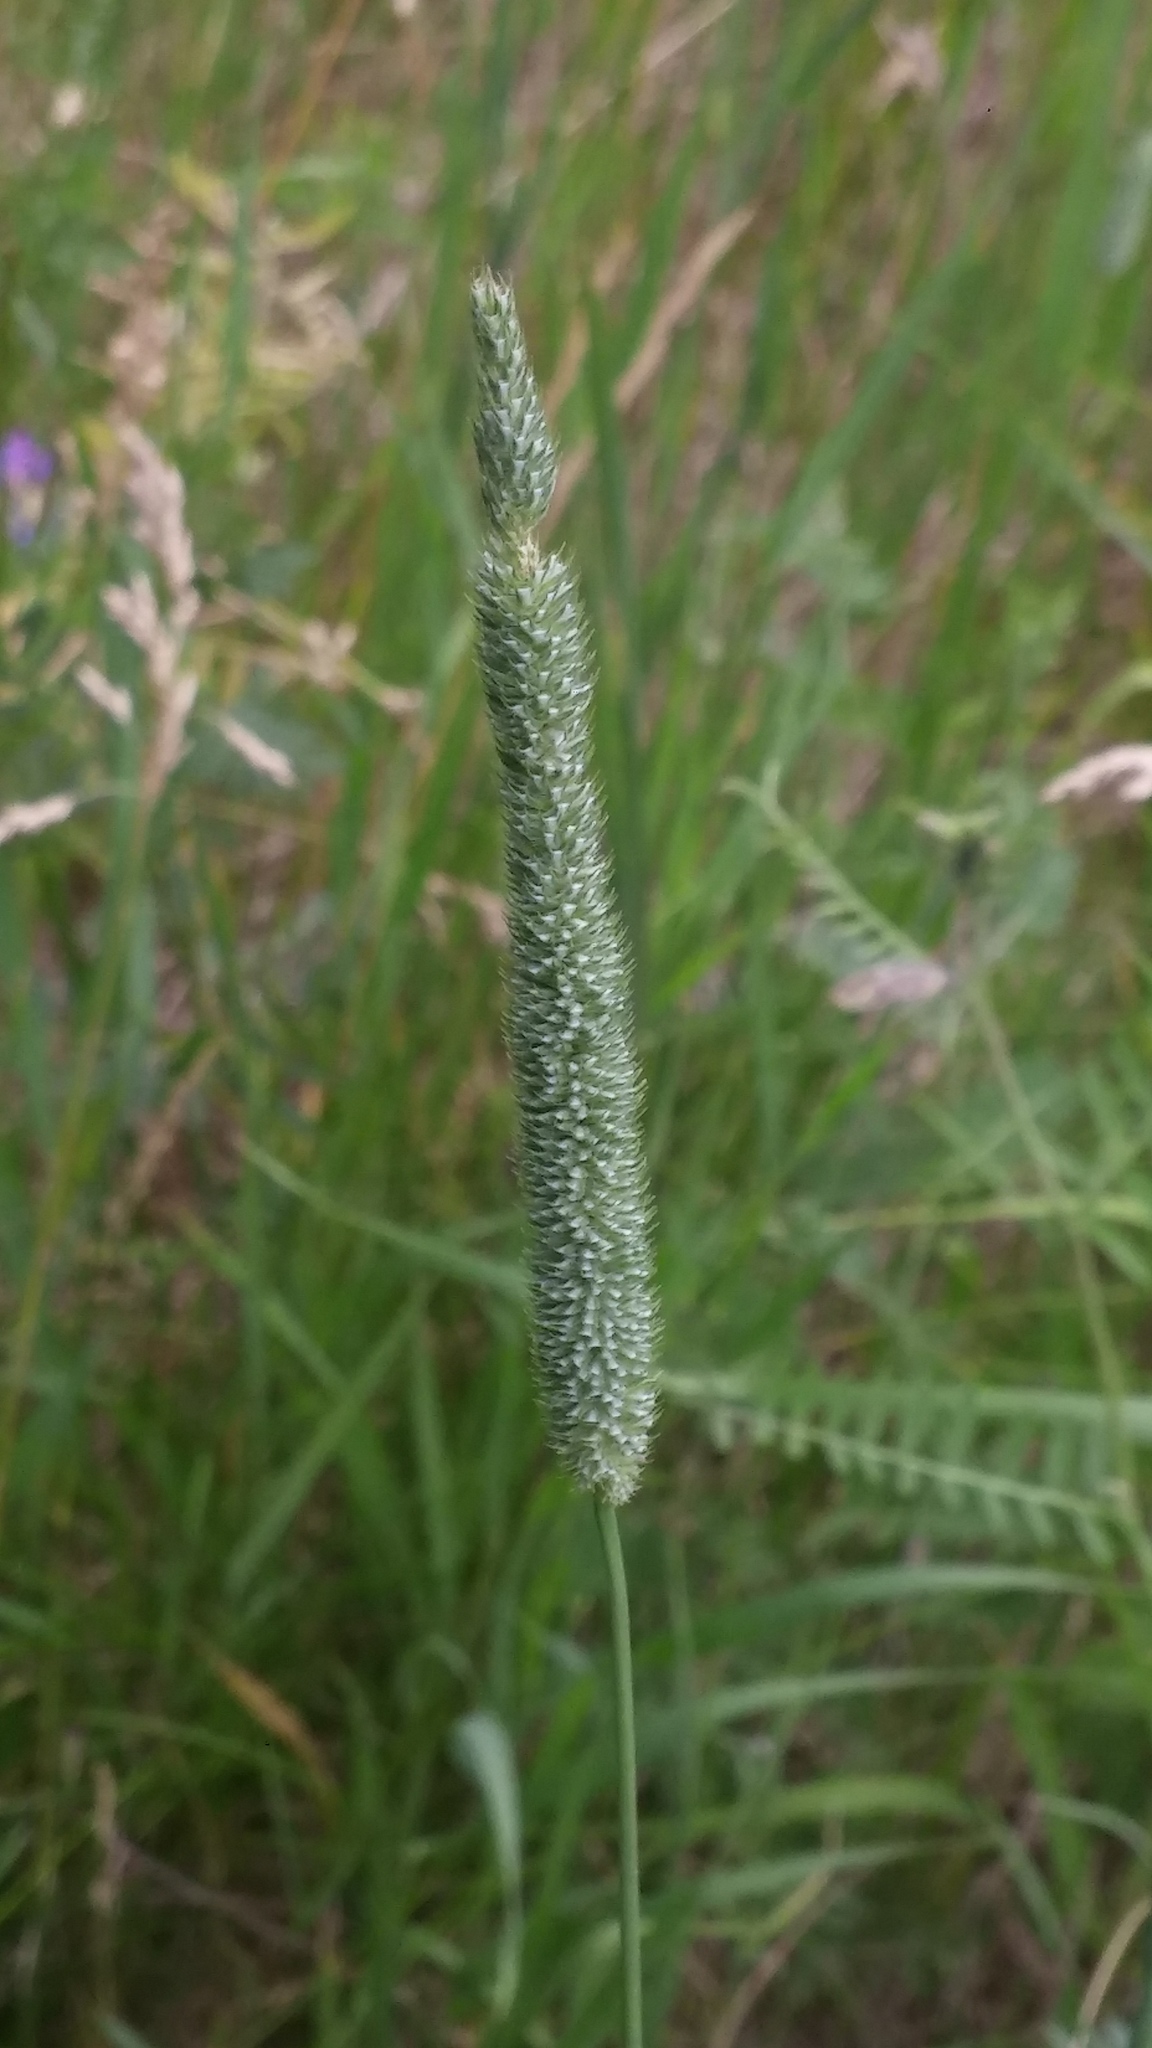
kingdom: Plantae
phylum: Tracheophyta
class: Liliopsida
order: Poales
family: Poaceae
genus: Phleum
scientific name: Phleum pratense
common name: Timothy grass
